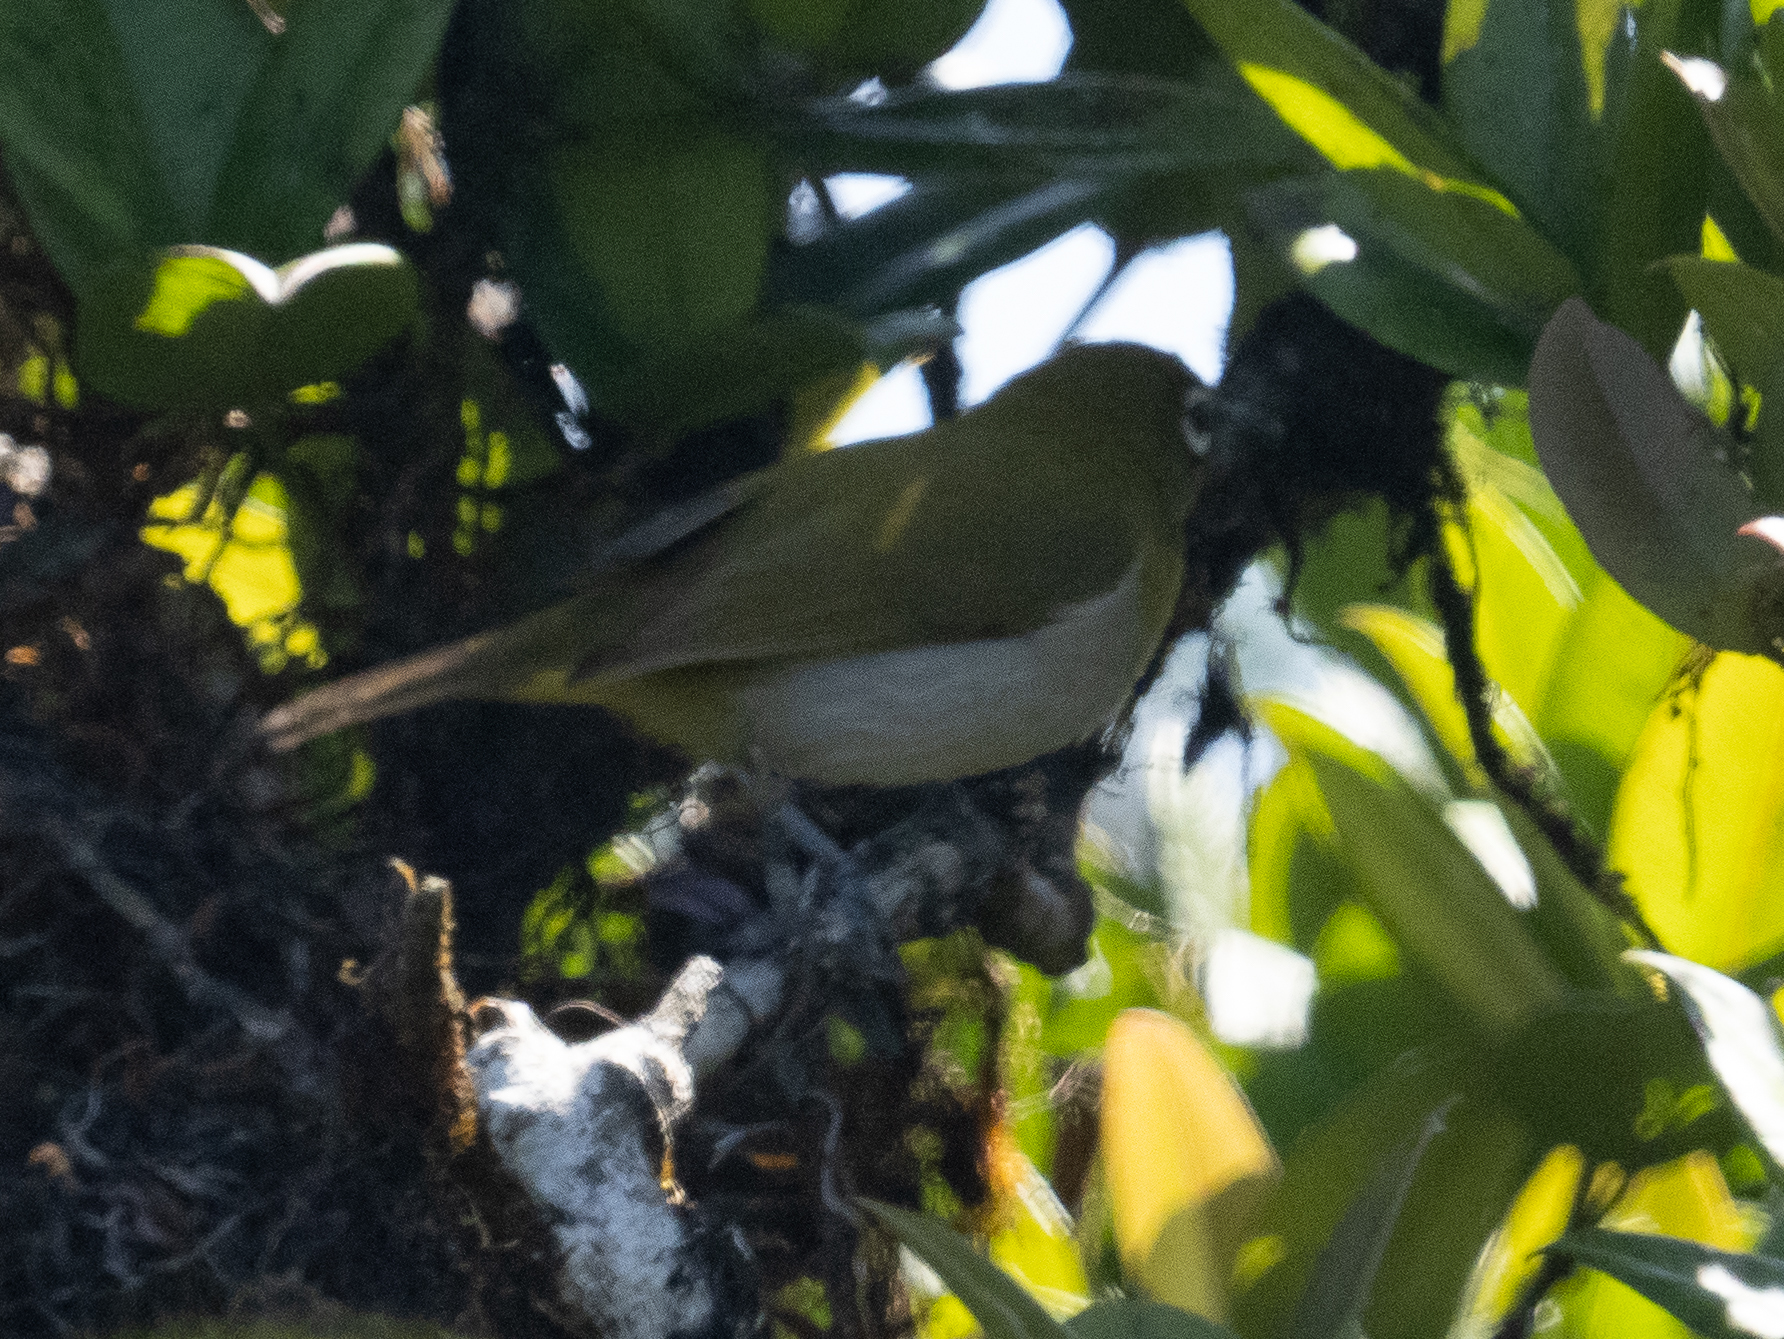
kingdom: Animalia
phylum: Chordata
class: Aves
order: Passeriformes
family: Zosteropidae
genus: Zosterops
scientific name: Zosterops ceylonensis
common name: Sri lanka white-eye
